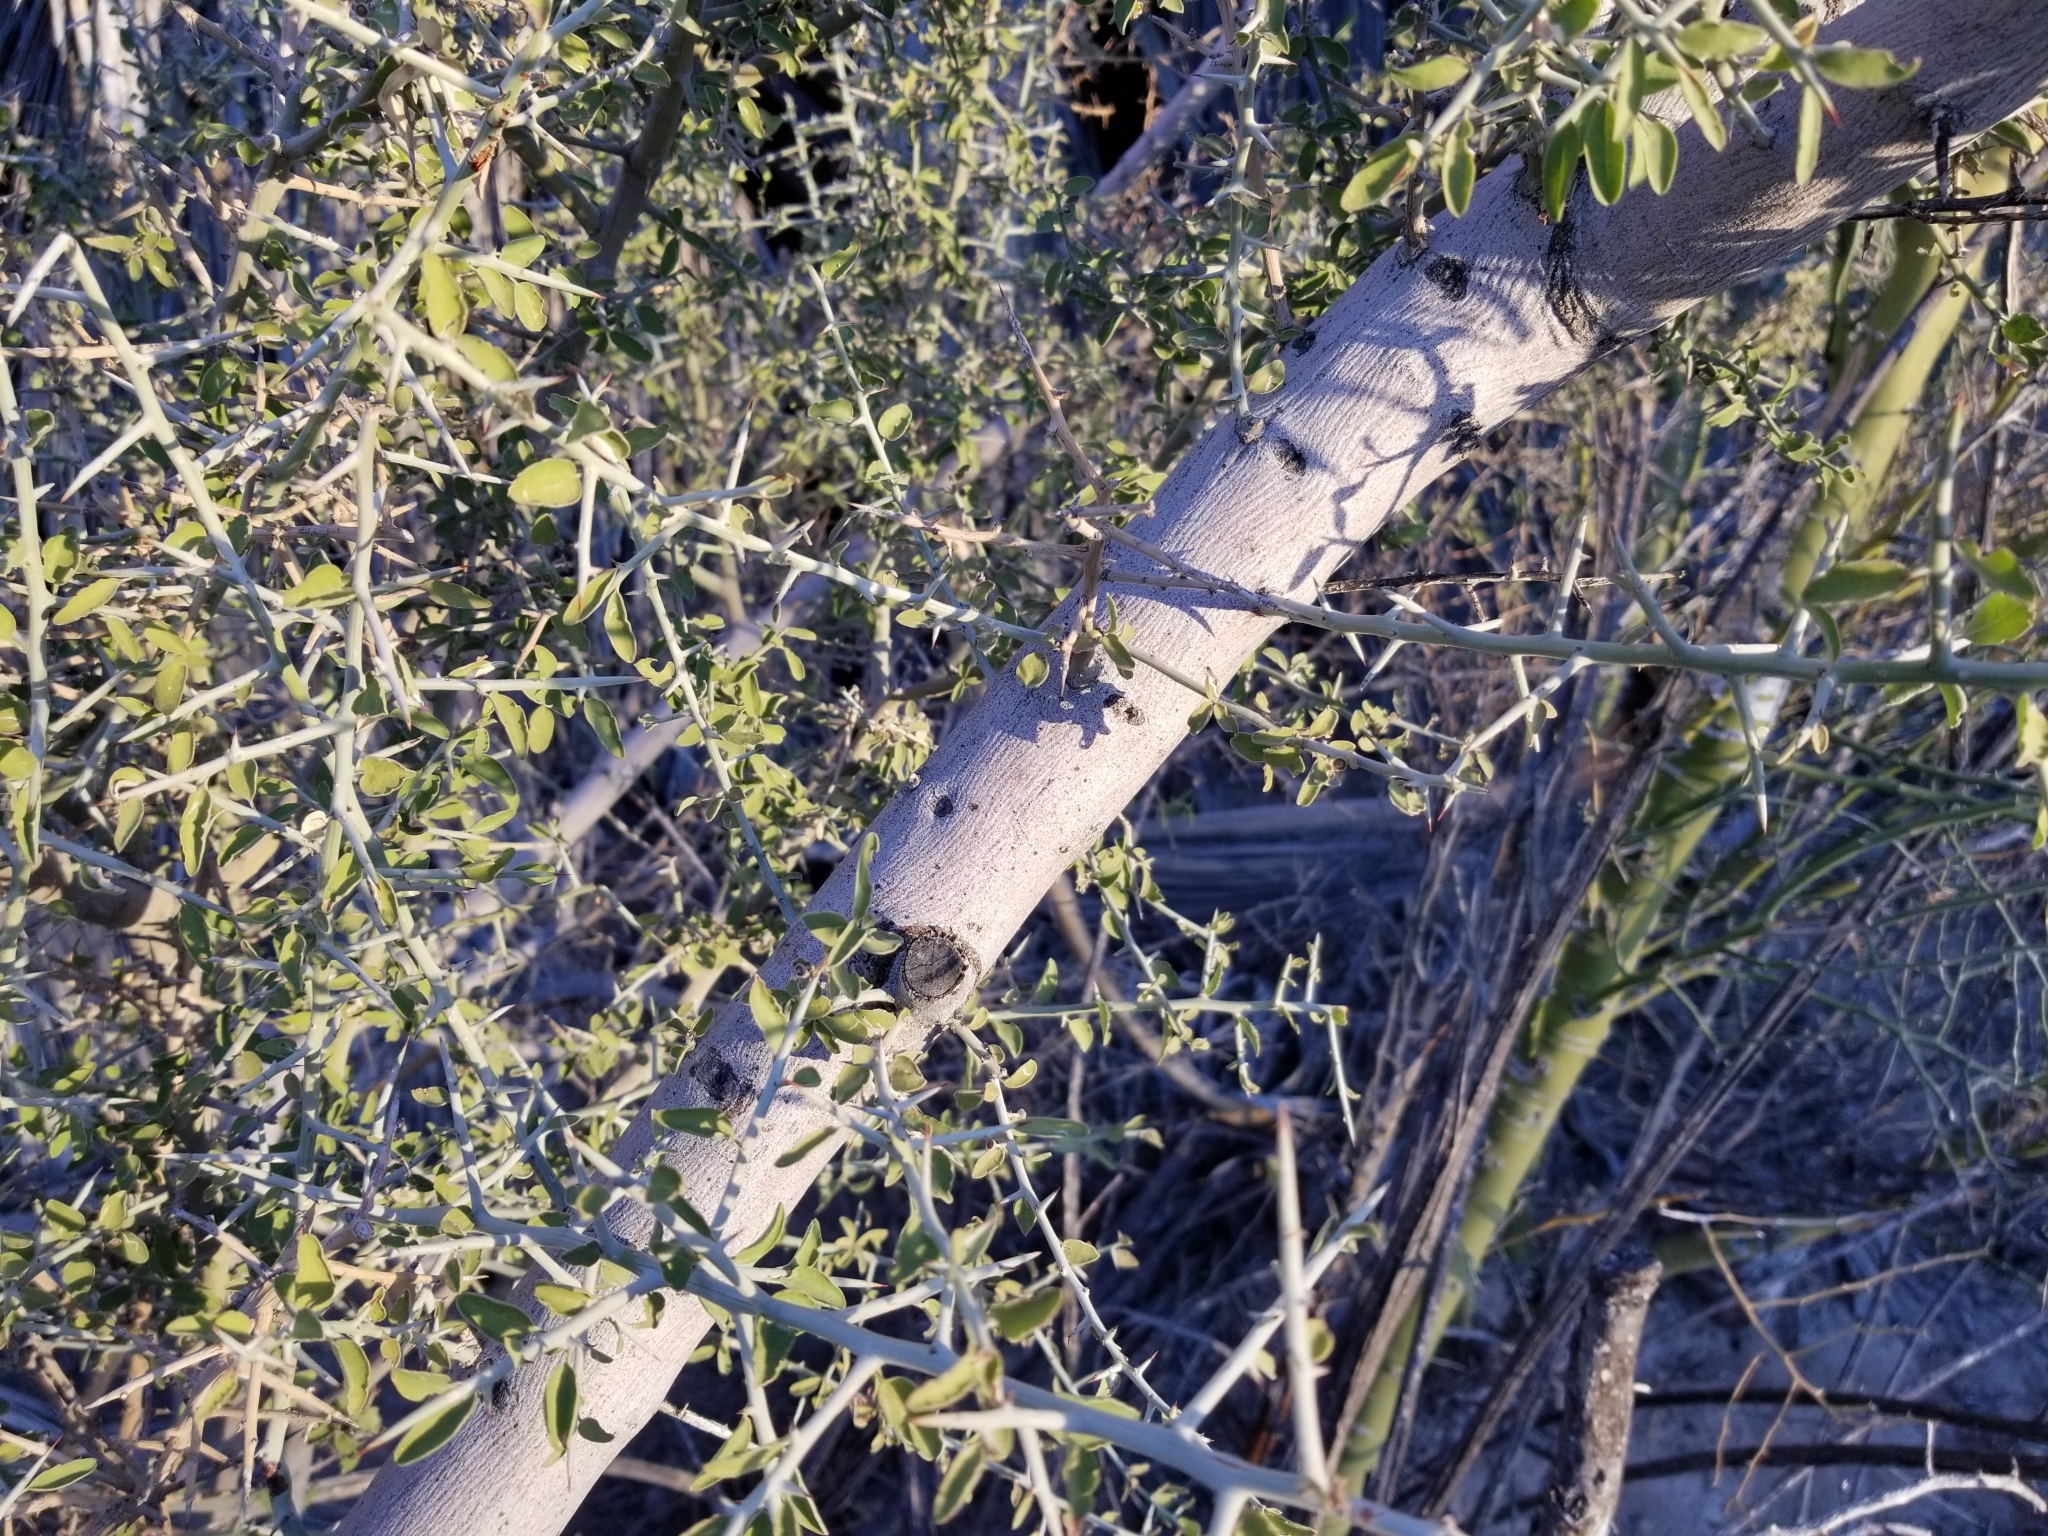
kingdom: Plantae
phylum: Tracheophyta
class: Magnoliopsida
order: Rosales
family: Rhamnaceae
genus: Sarcomphalus
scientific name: Sarcomphalus obtusifolius
